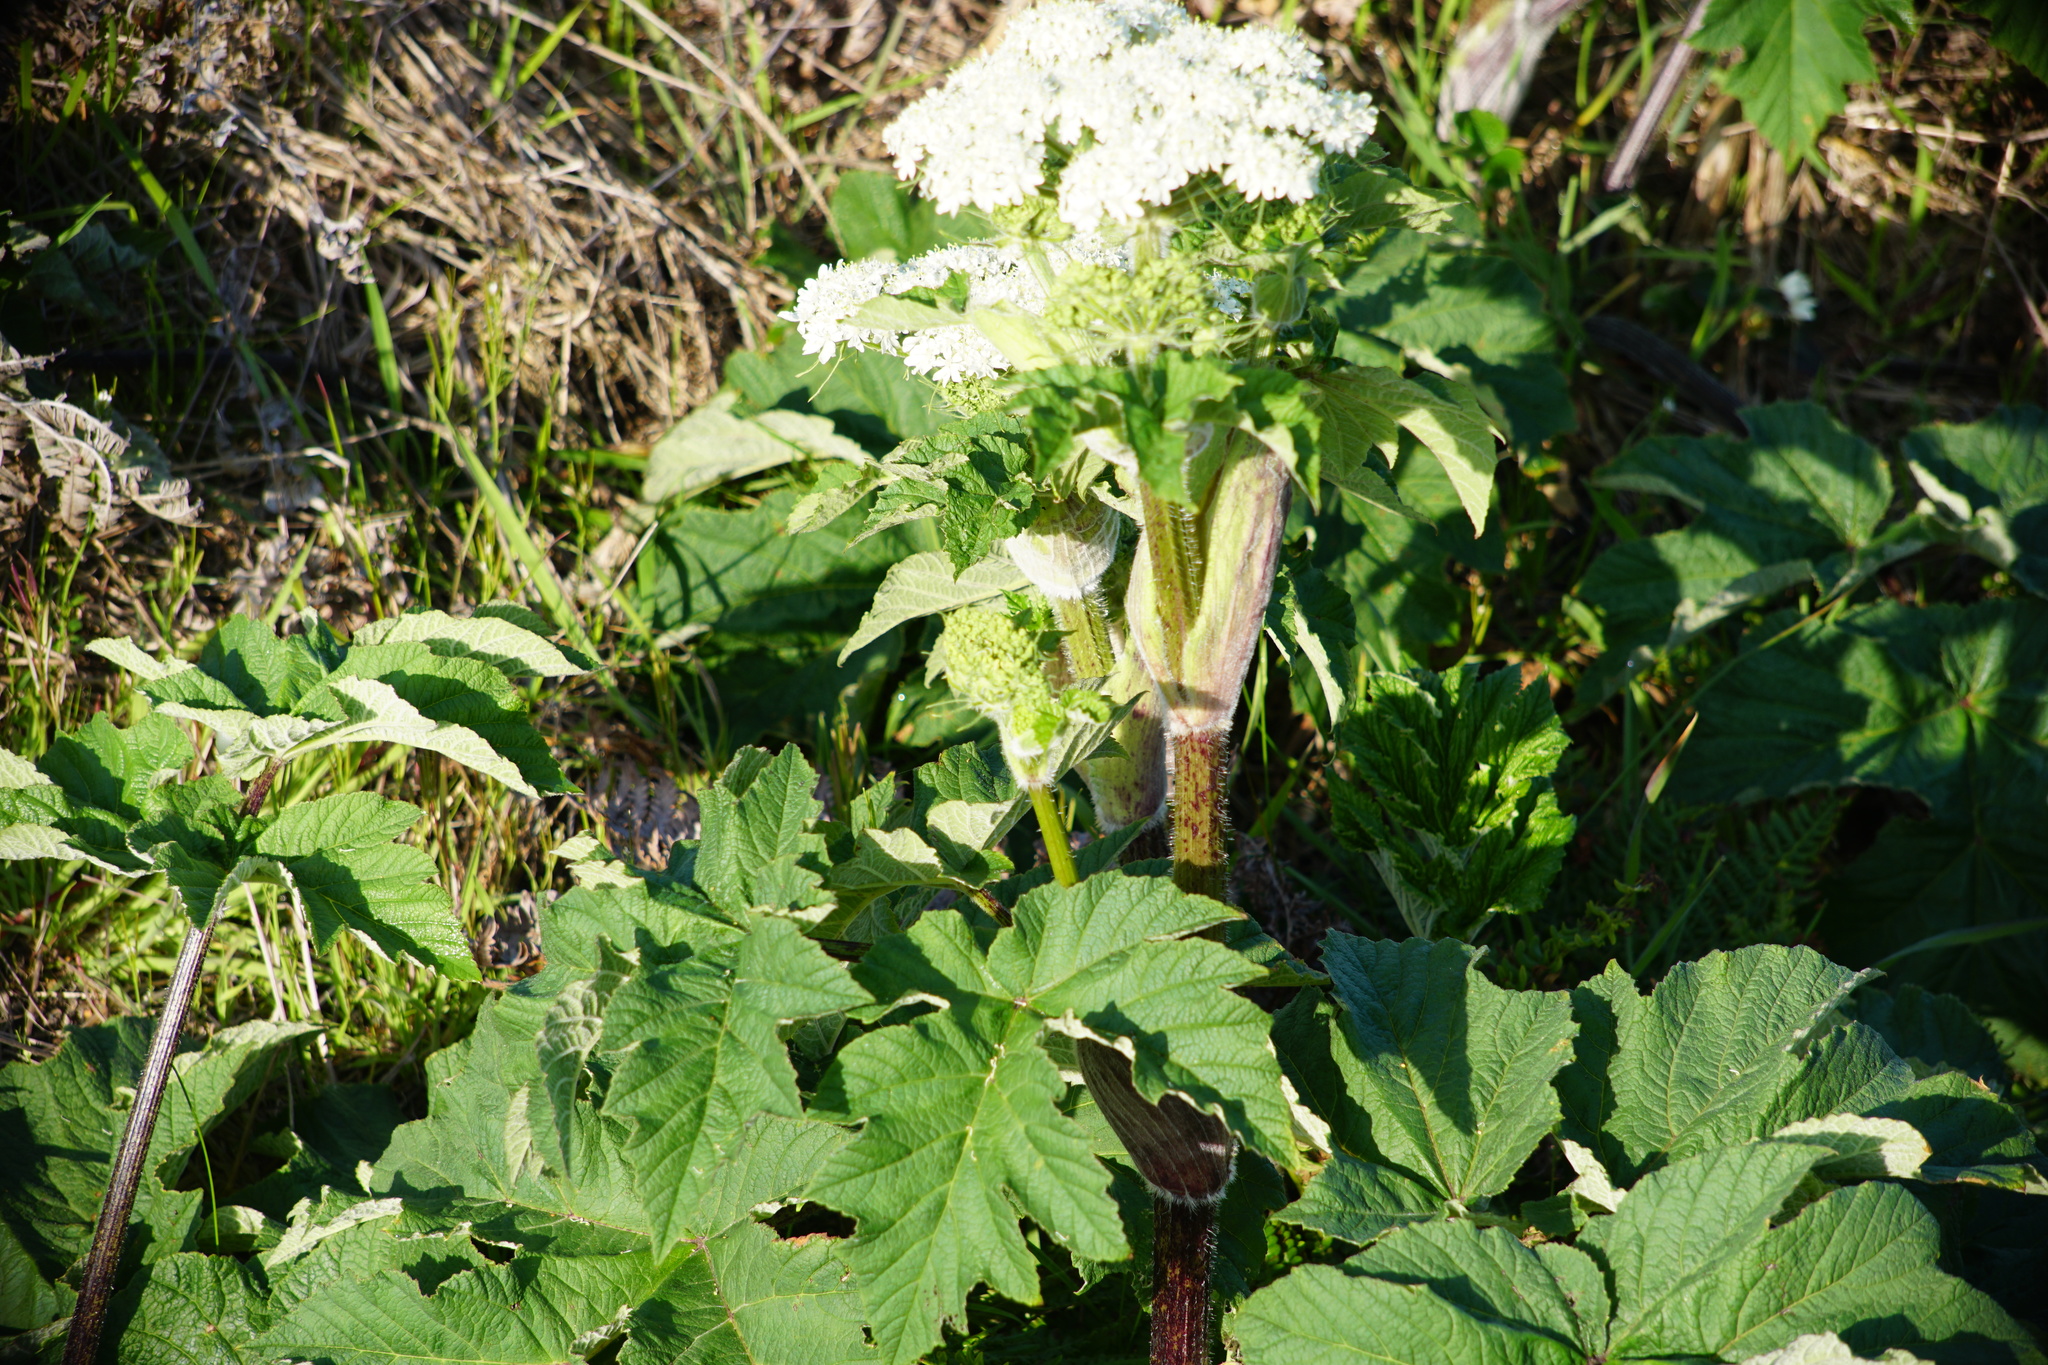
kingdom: Plantae
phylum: Tracheophyta
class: Magnoliopsida
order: Apiales
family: Apiaceae
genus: Heracleum
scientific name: Heracleum maximum
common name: American cow parsnip
